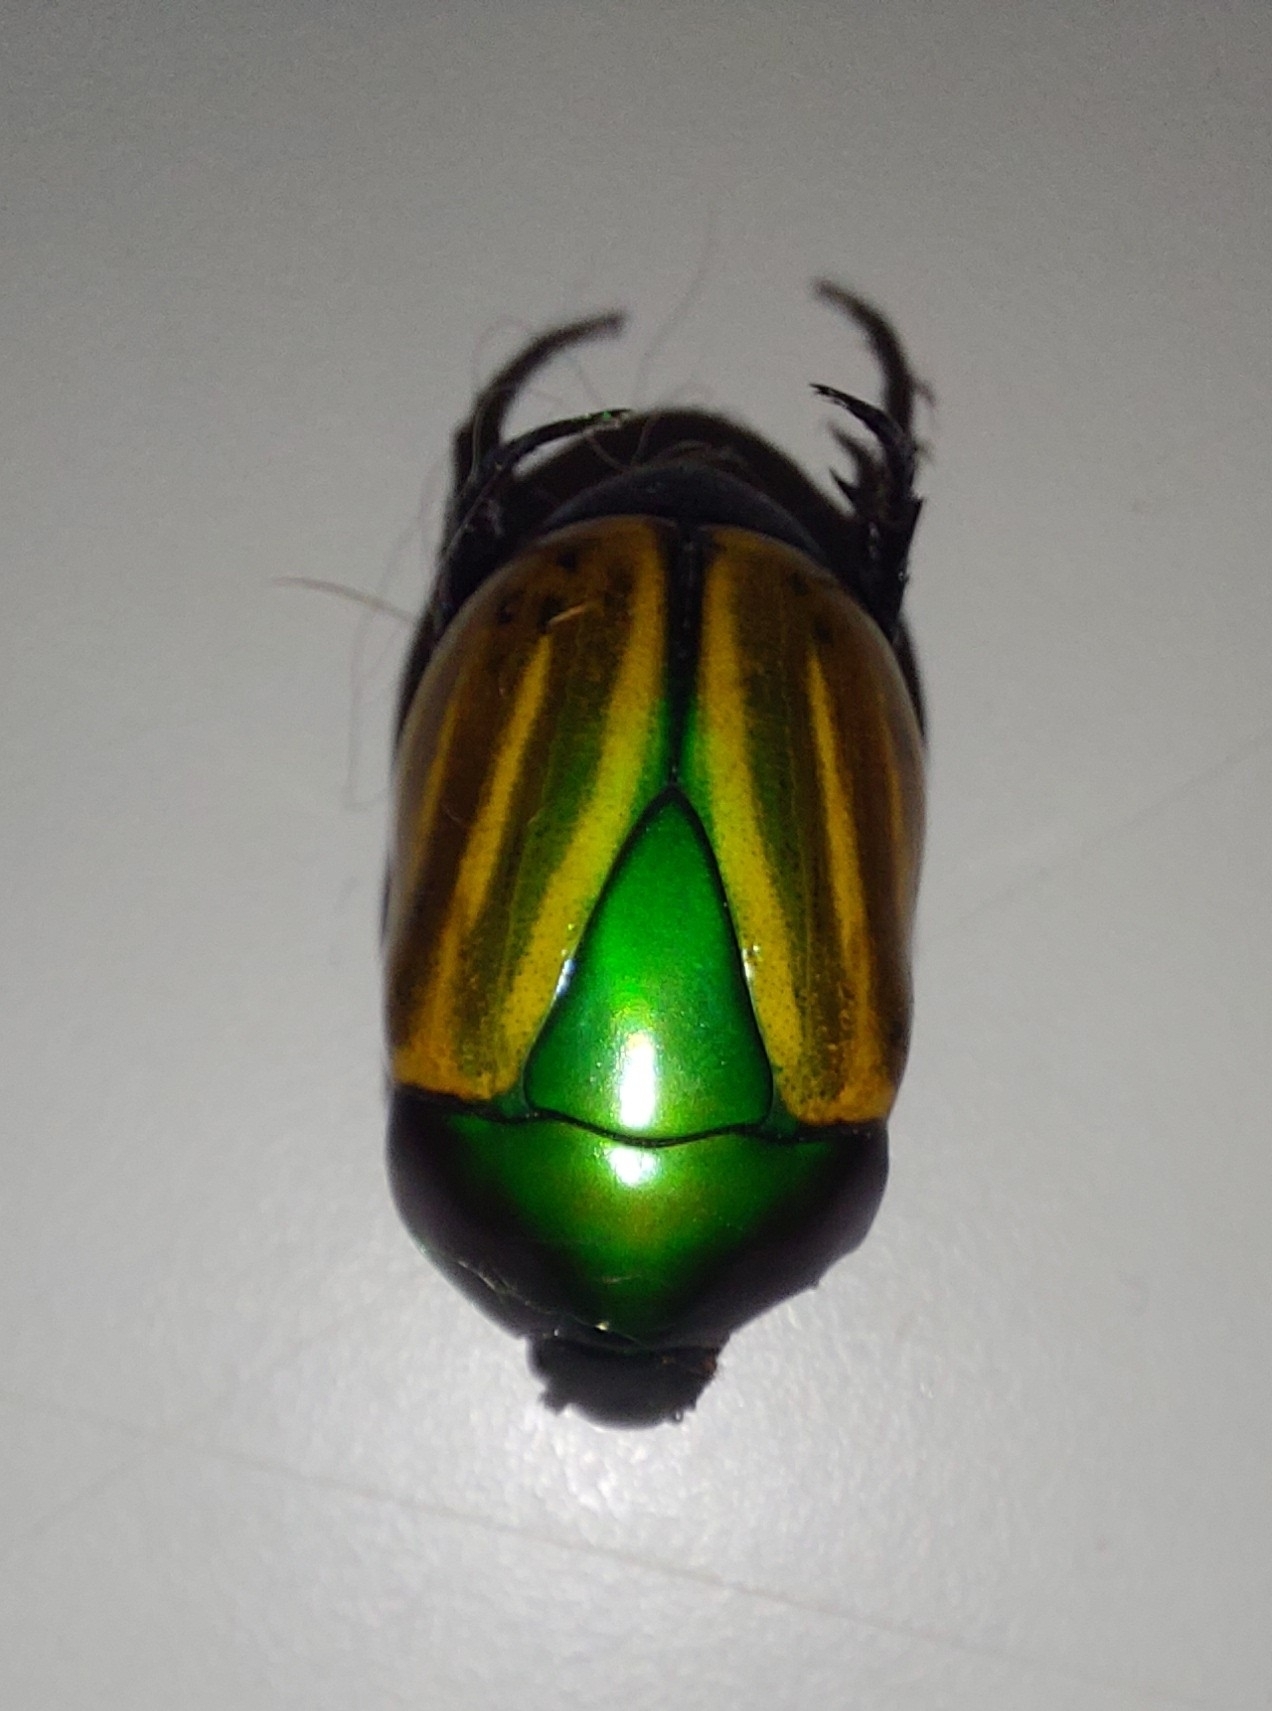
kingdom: Animalia
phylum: Arthropoda
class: Insecta
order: Coleoptera
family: Scarabaeidae
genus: Macraspis
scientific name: Macraspis festiva
